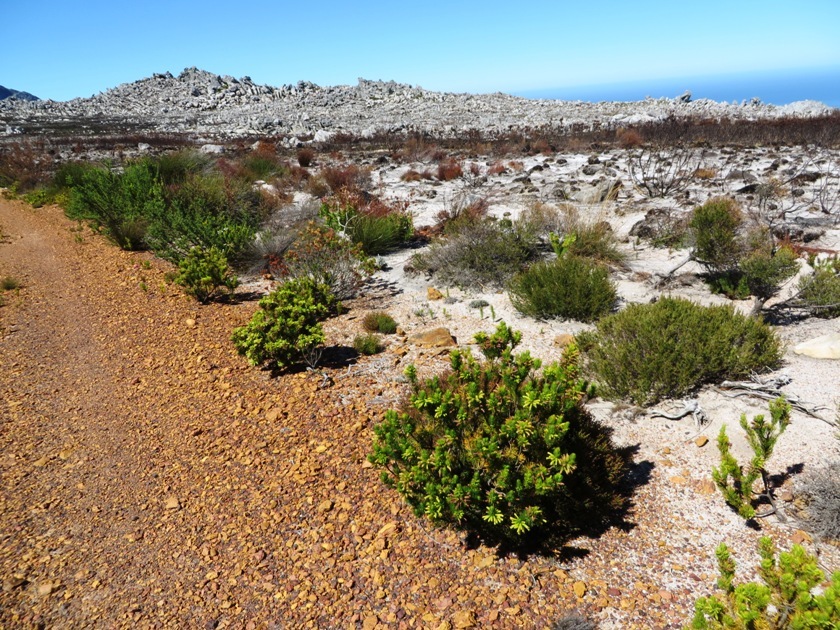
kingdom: Plantae
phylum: Tracheophyta
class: Magnoliopsida
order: Ericales
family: Ericaceae
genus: Erica
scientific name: Erica viscaria
